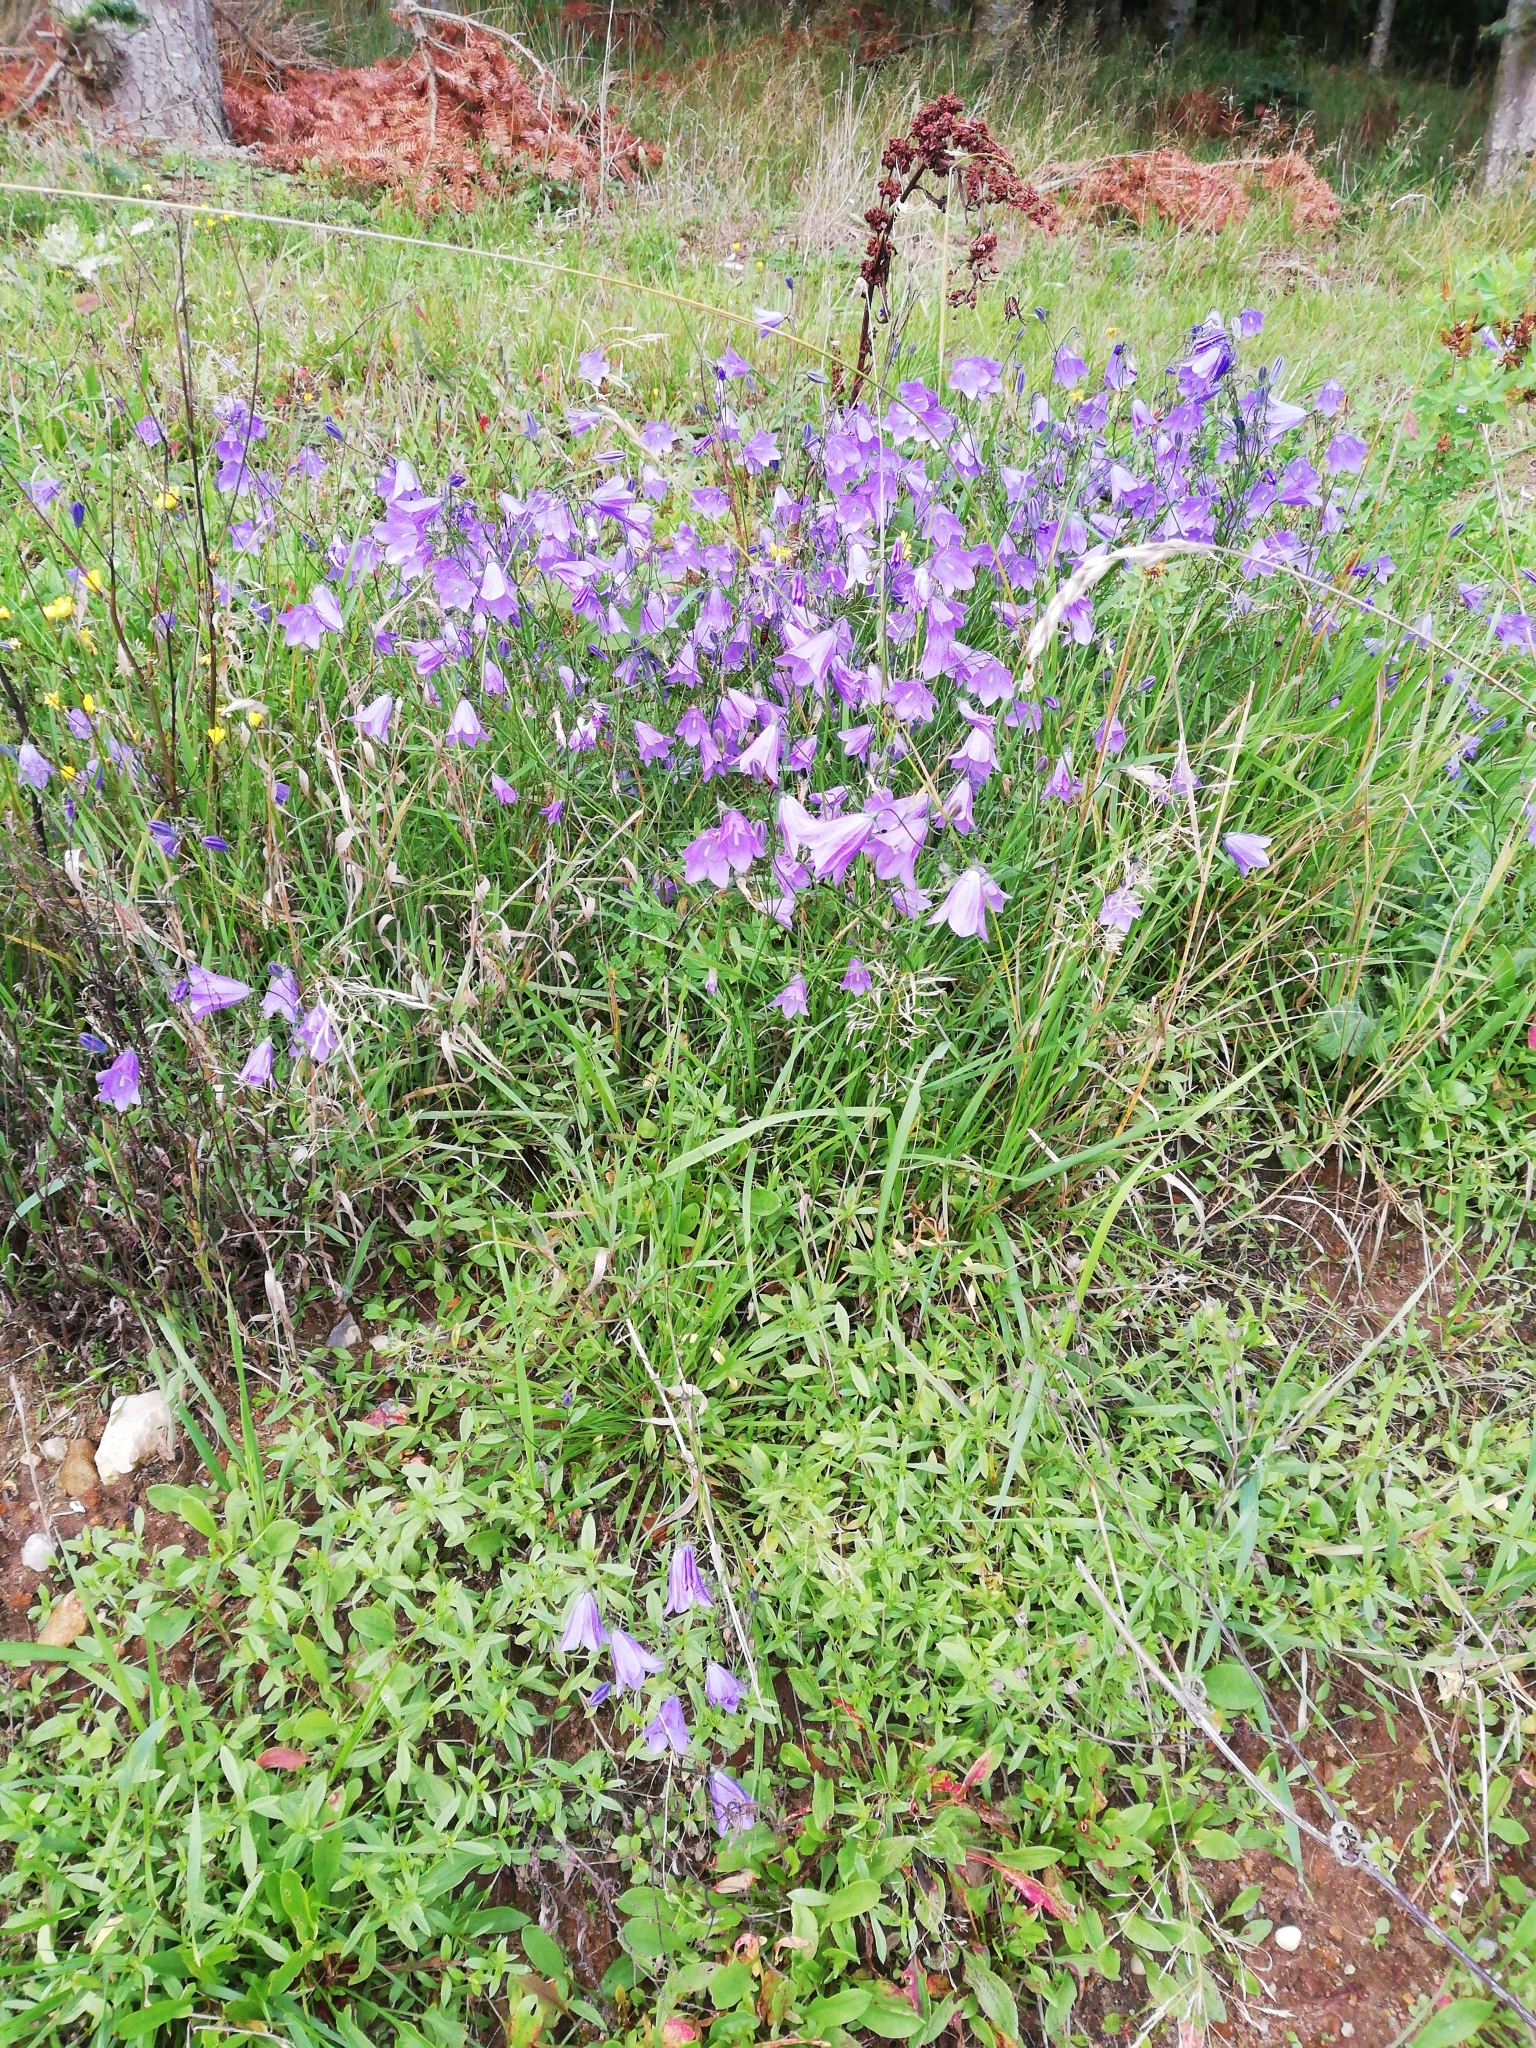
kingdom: Plantae
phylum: Tracheophyta
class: Magnoliopsida
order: Asterales
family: Campanulaceae
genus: Campanula
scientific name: Campanula rotundifolia
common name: Harebell
